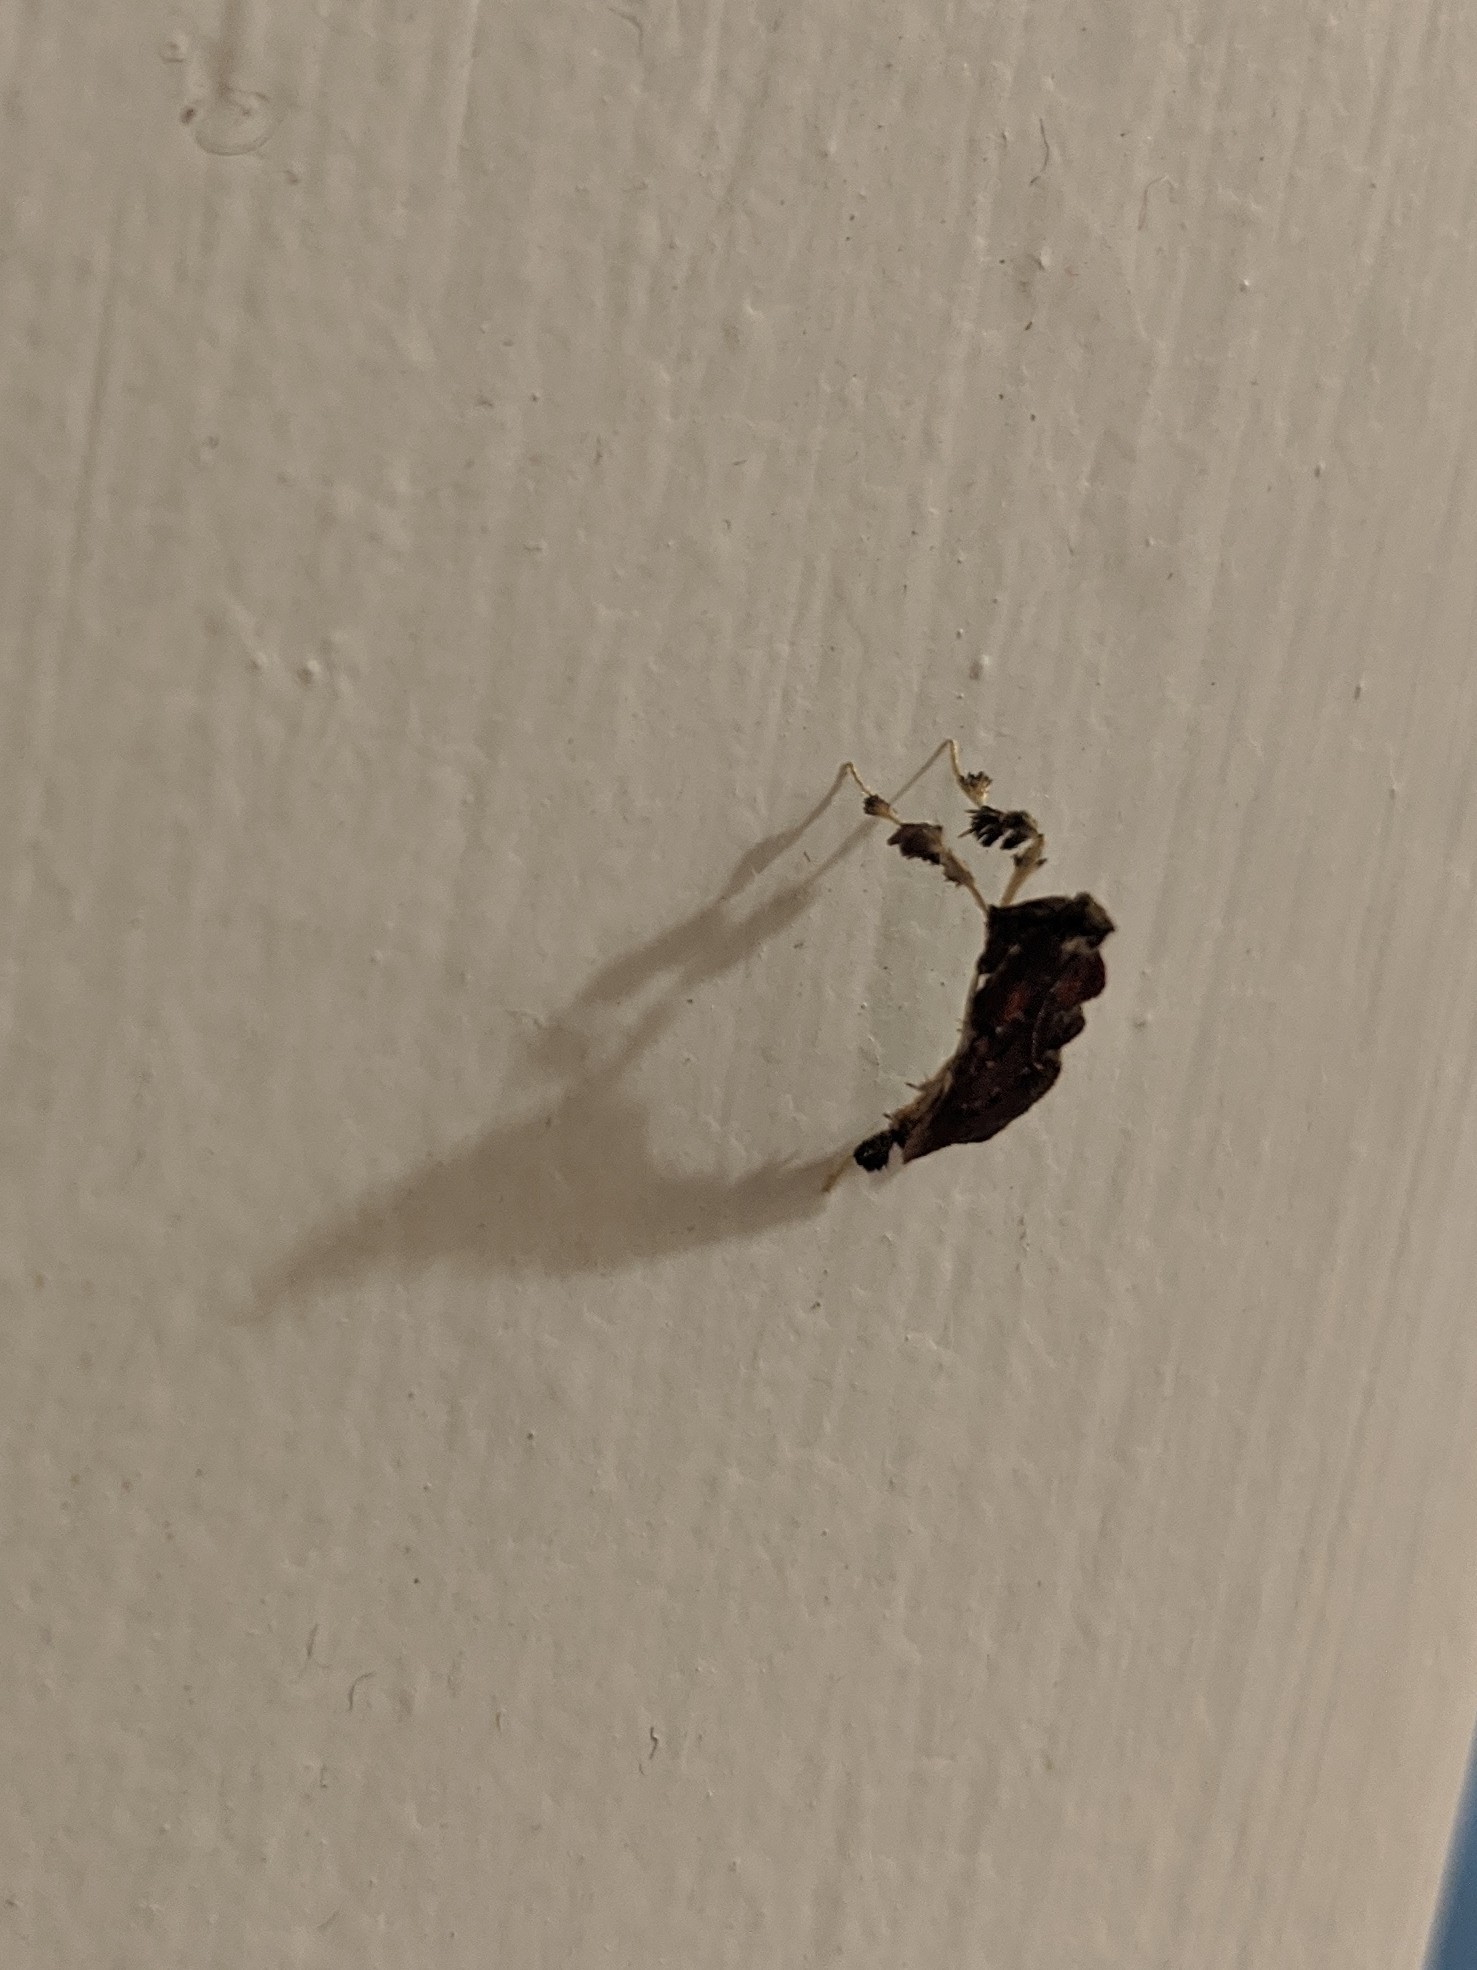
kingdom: Animalia
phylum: Arthropoda
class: Insecta
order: Lepidoptera
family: Pyralidae
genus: Galasa
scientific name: Galasa nigrinodis
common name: Boxwood leaftier moth
